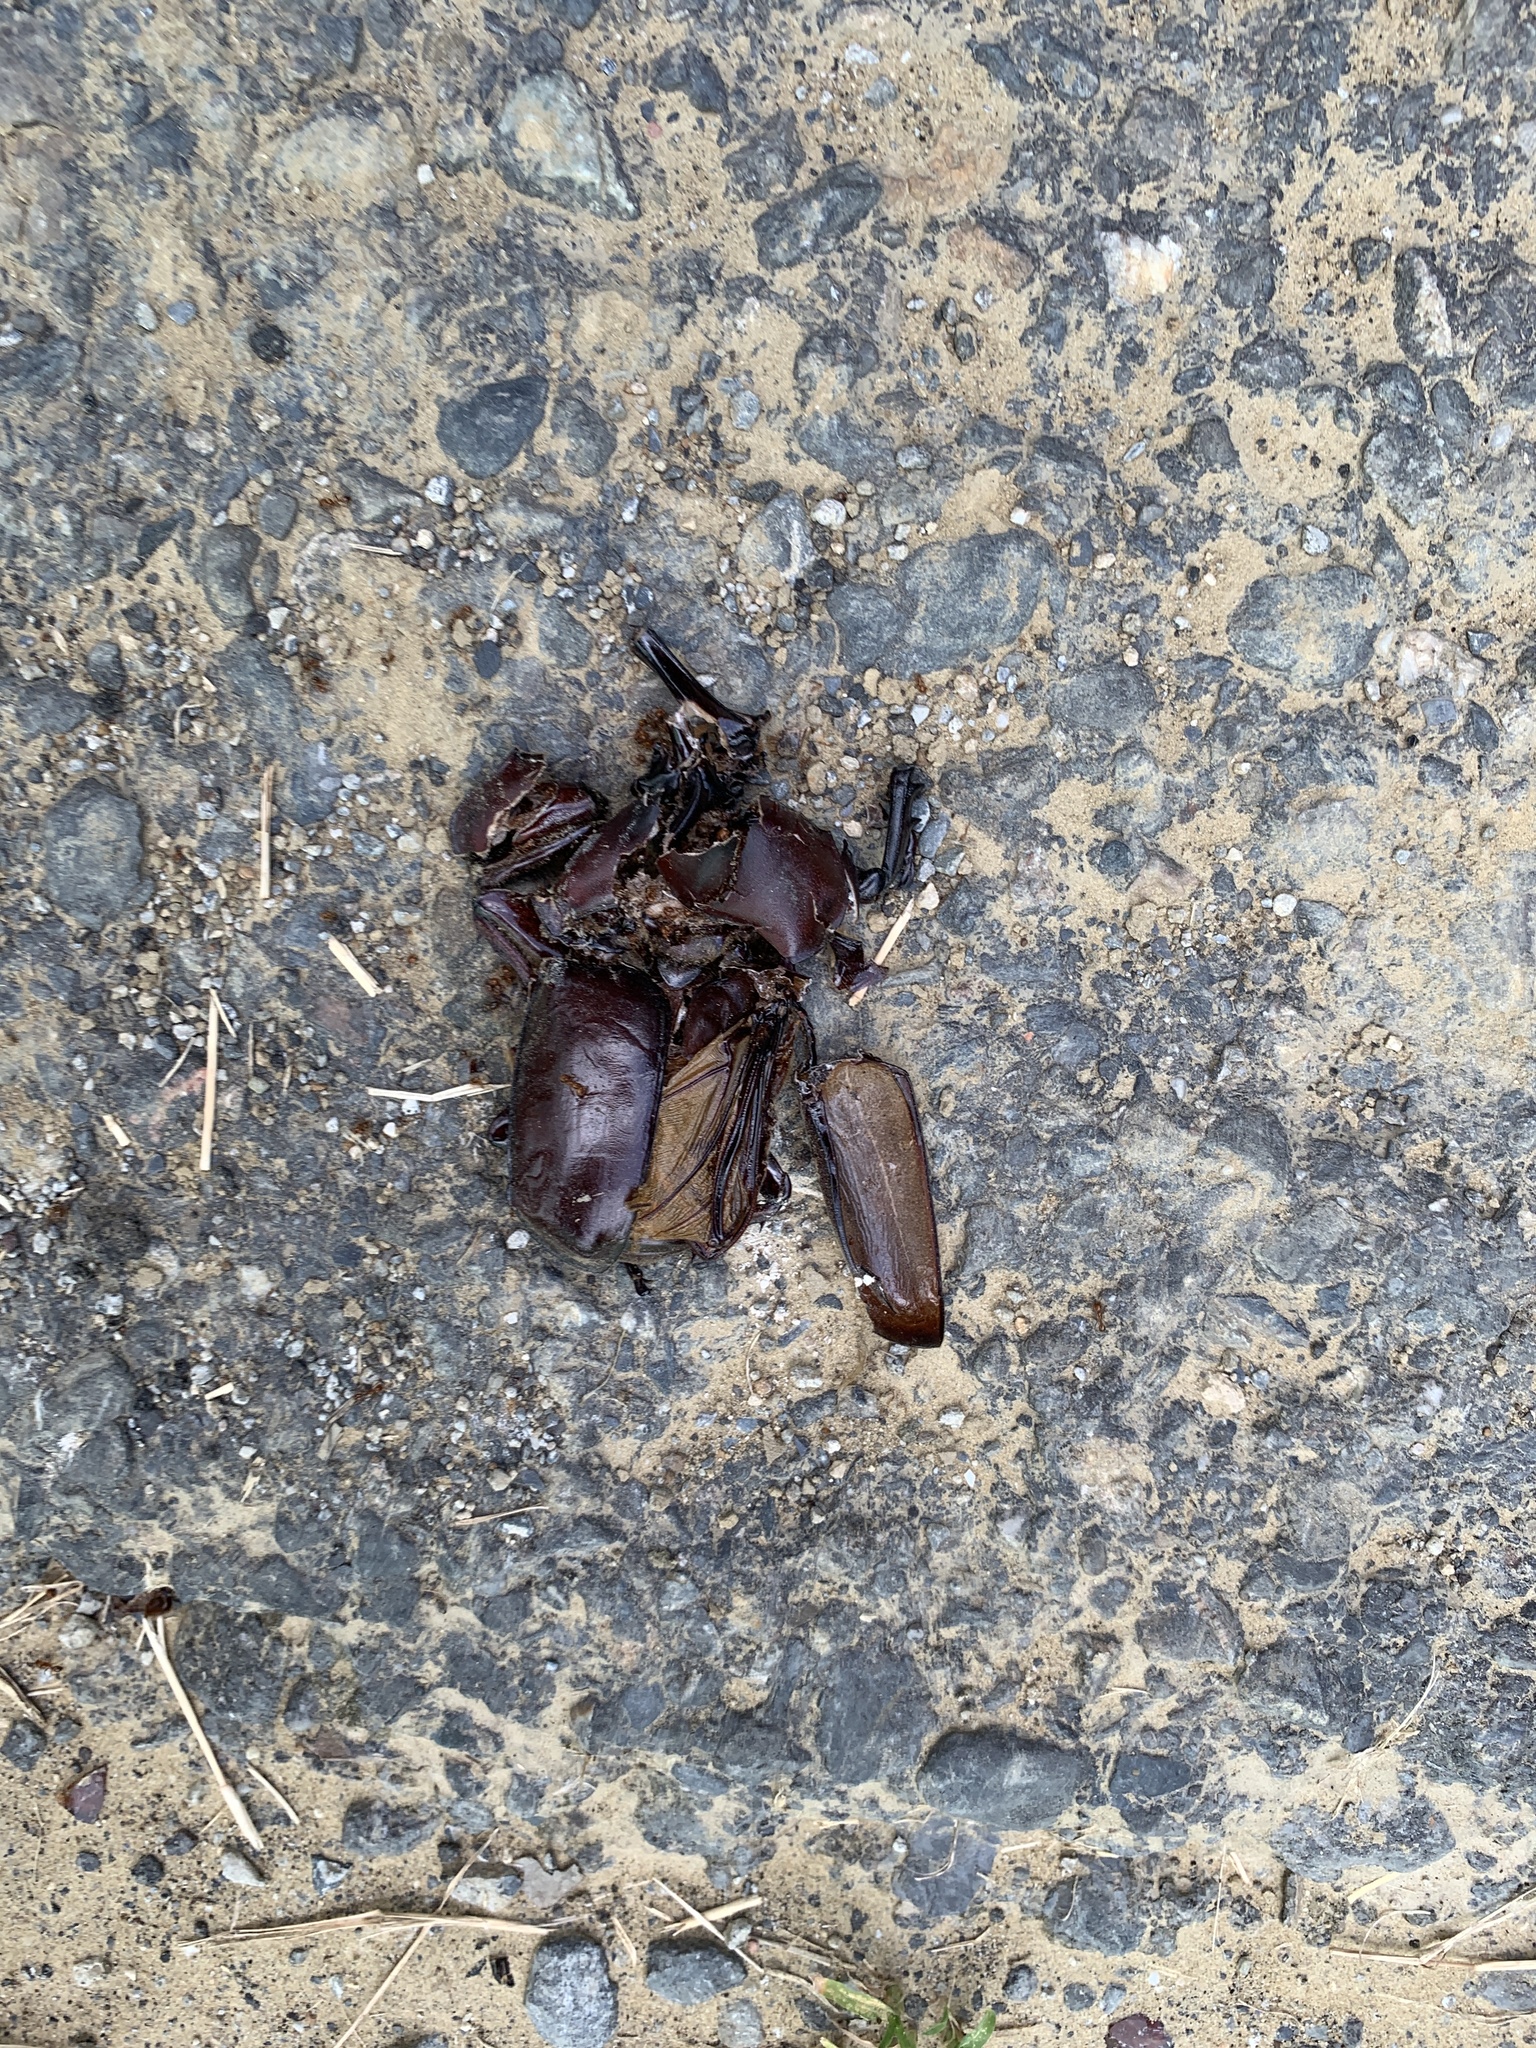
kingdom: Animalia
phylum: Arthropoda
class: Insecta
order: Coleoptera
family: Scarabaeidae
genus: Trypoxylus
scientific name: Trypoxylus dichotomus
